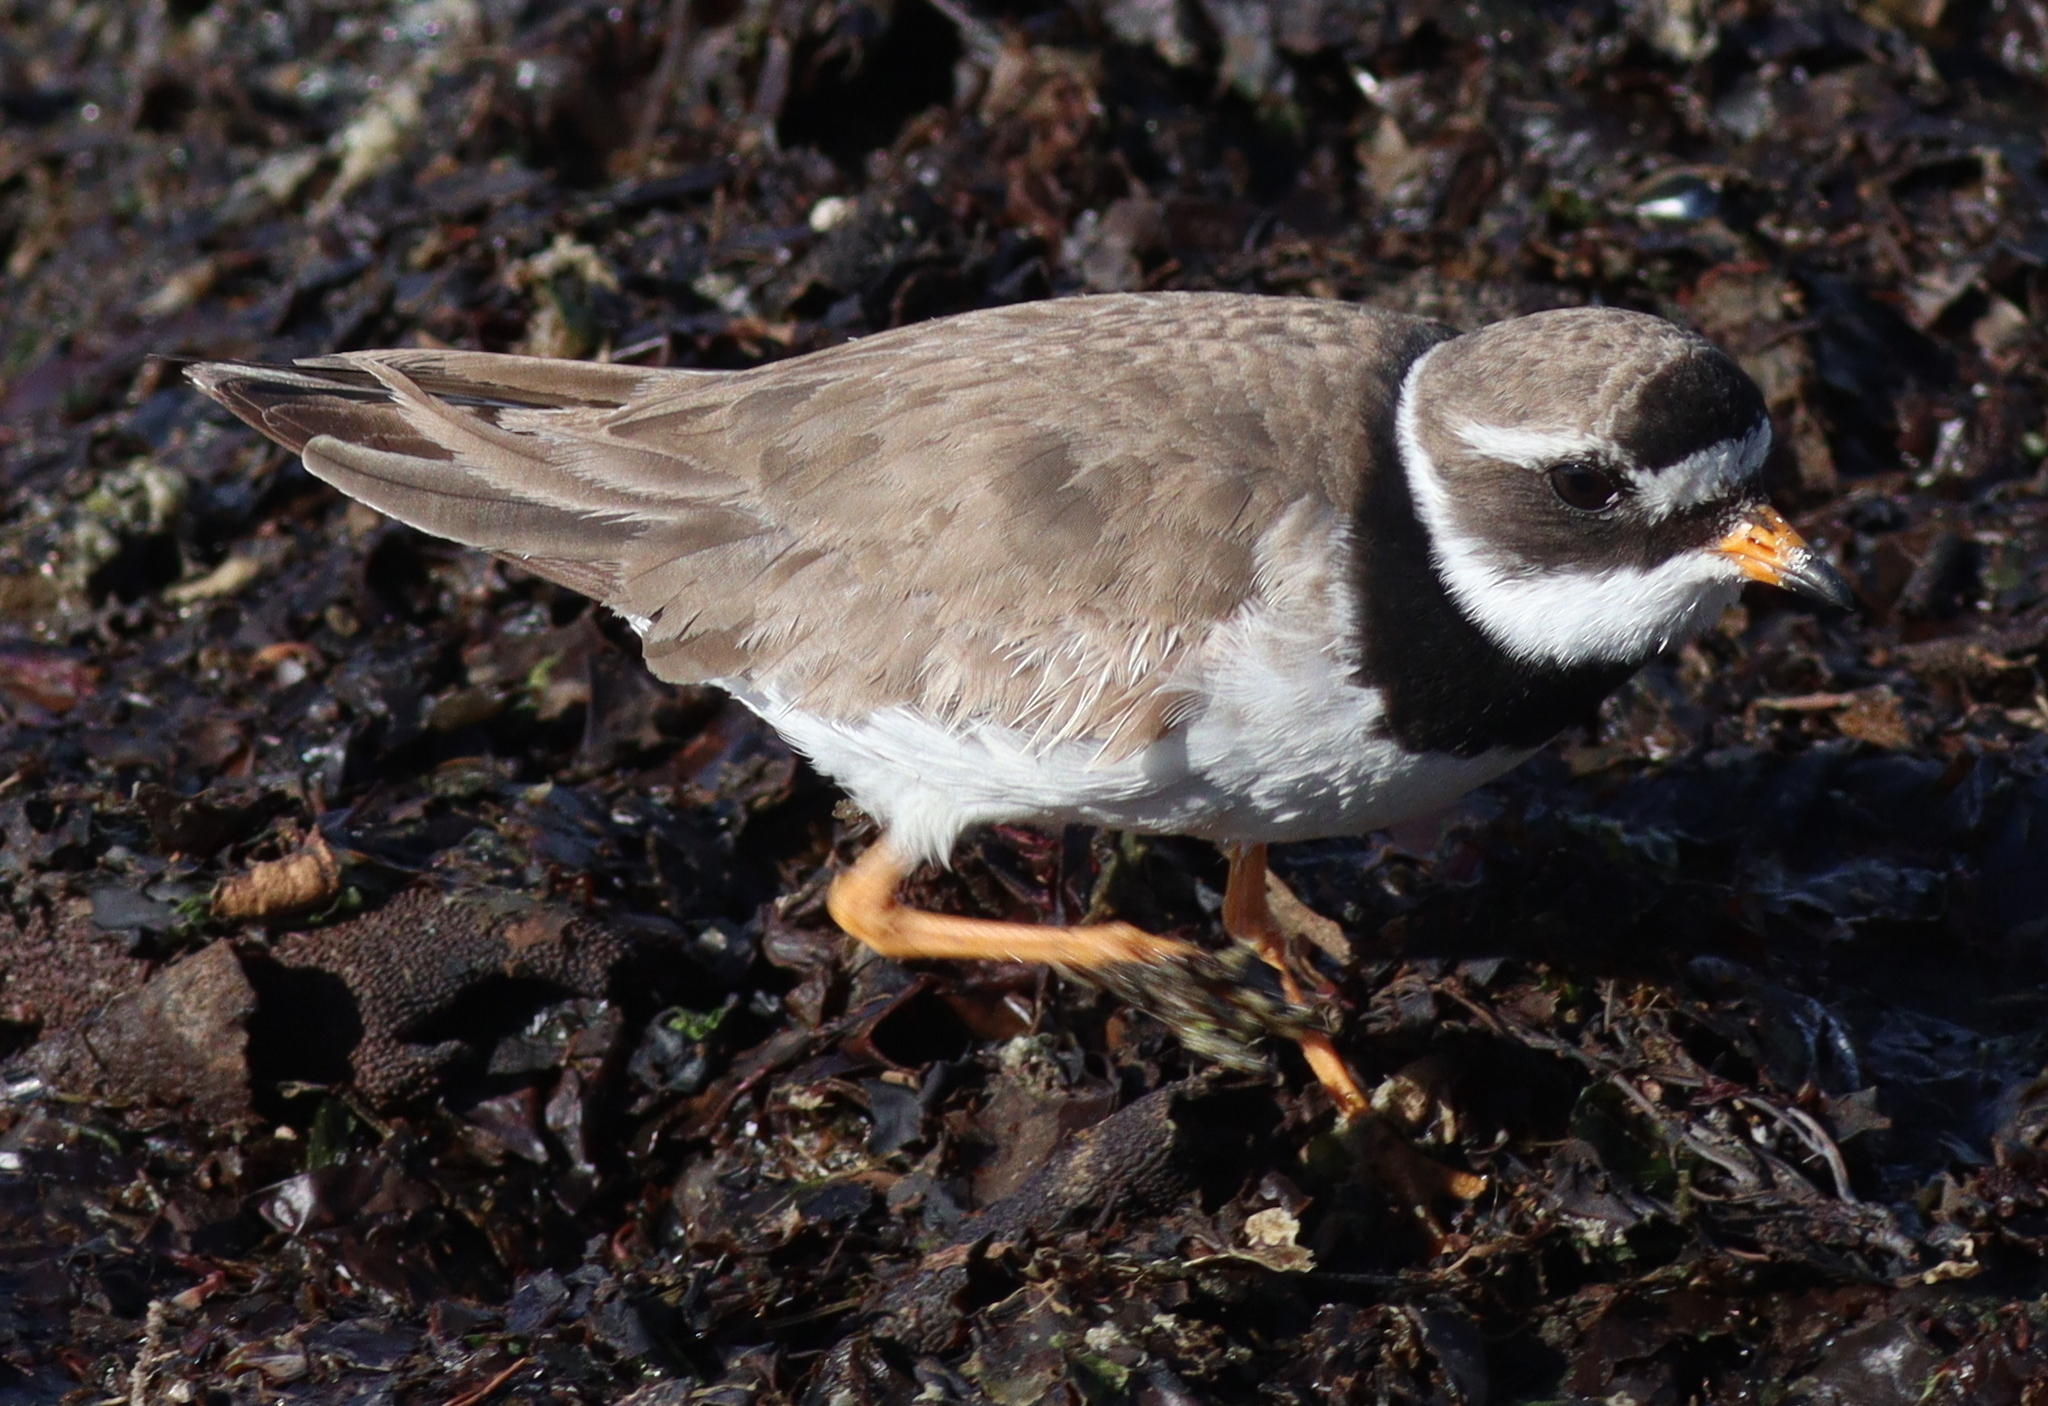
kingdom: Animalia
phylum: Chordata
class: Aves
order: Charadriiformes
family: Charadriidae
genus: Charadrius
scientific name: Charadrius hiaticula
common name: Common ringed plover
